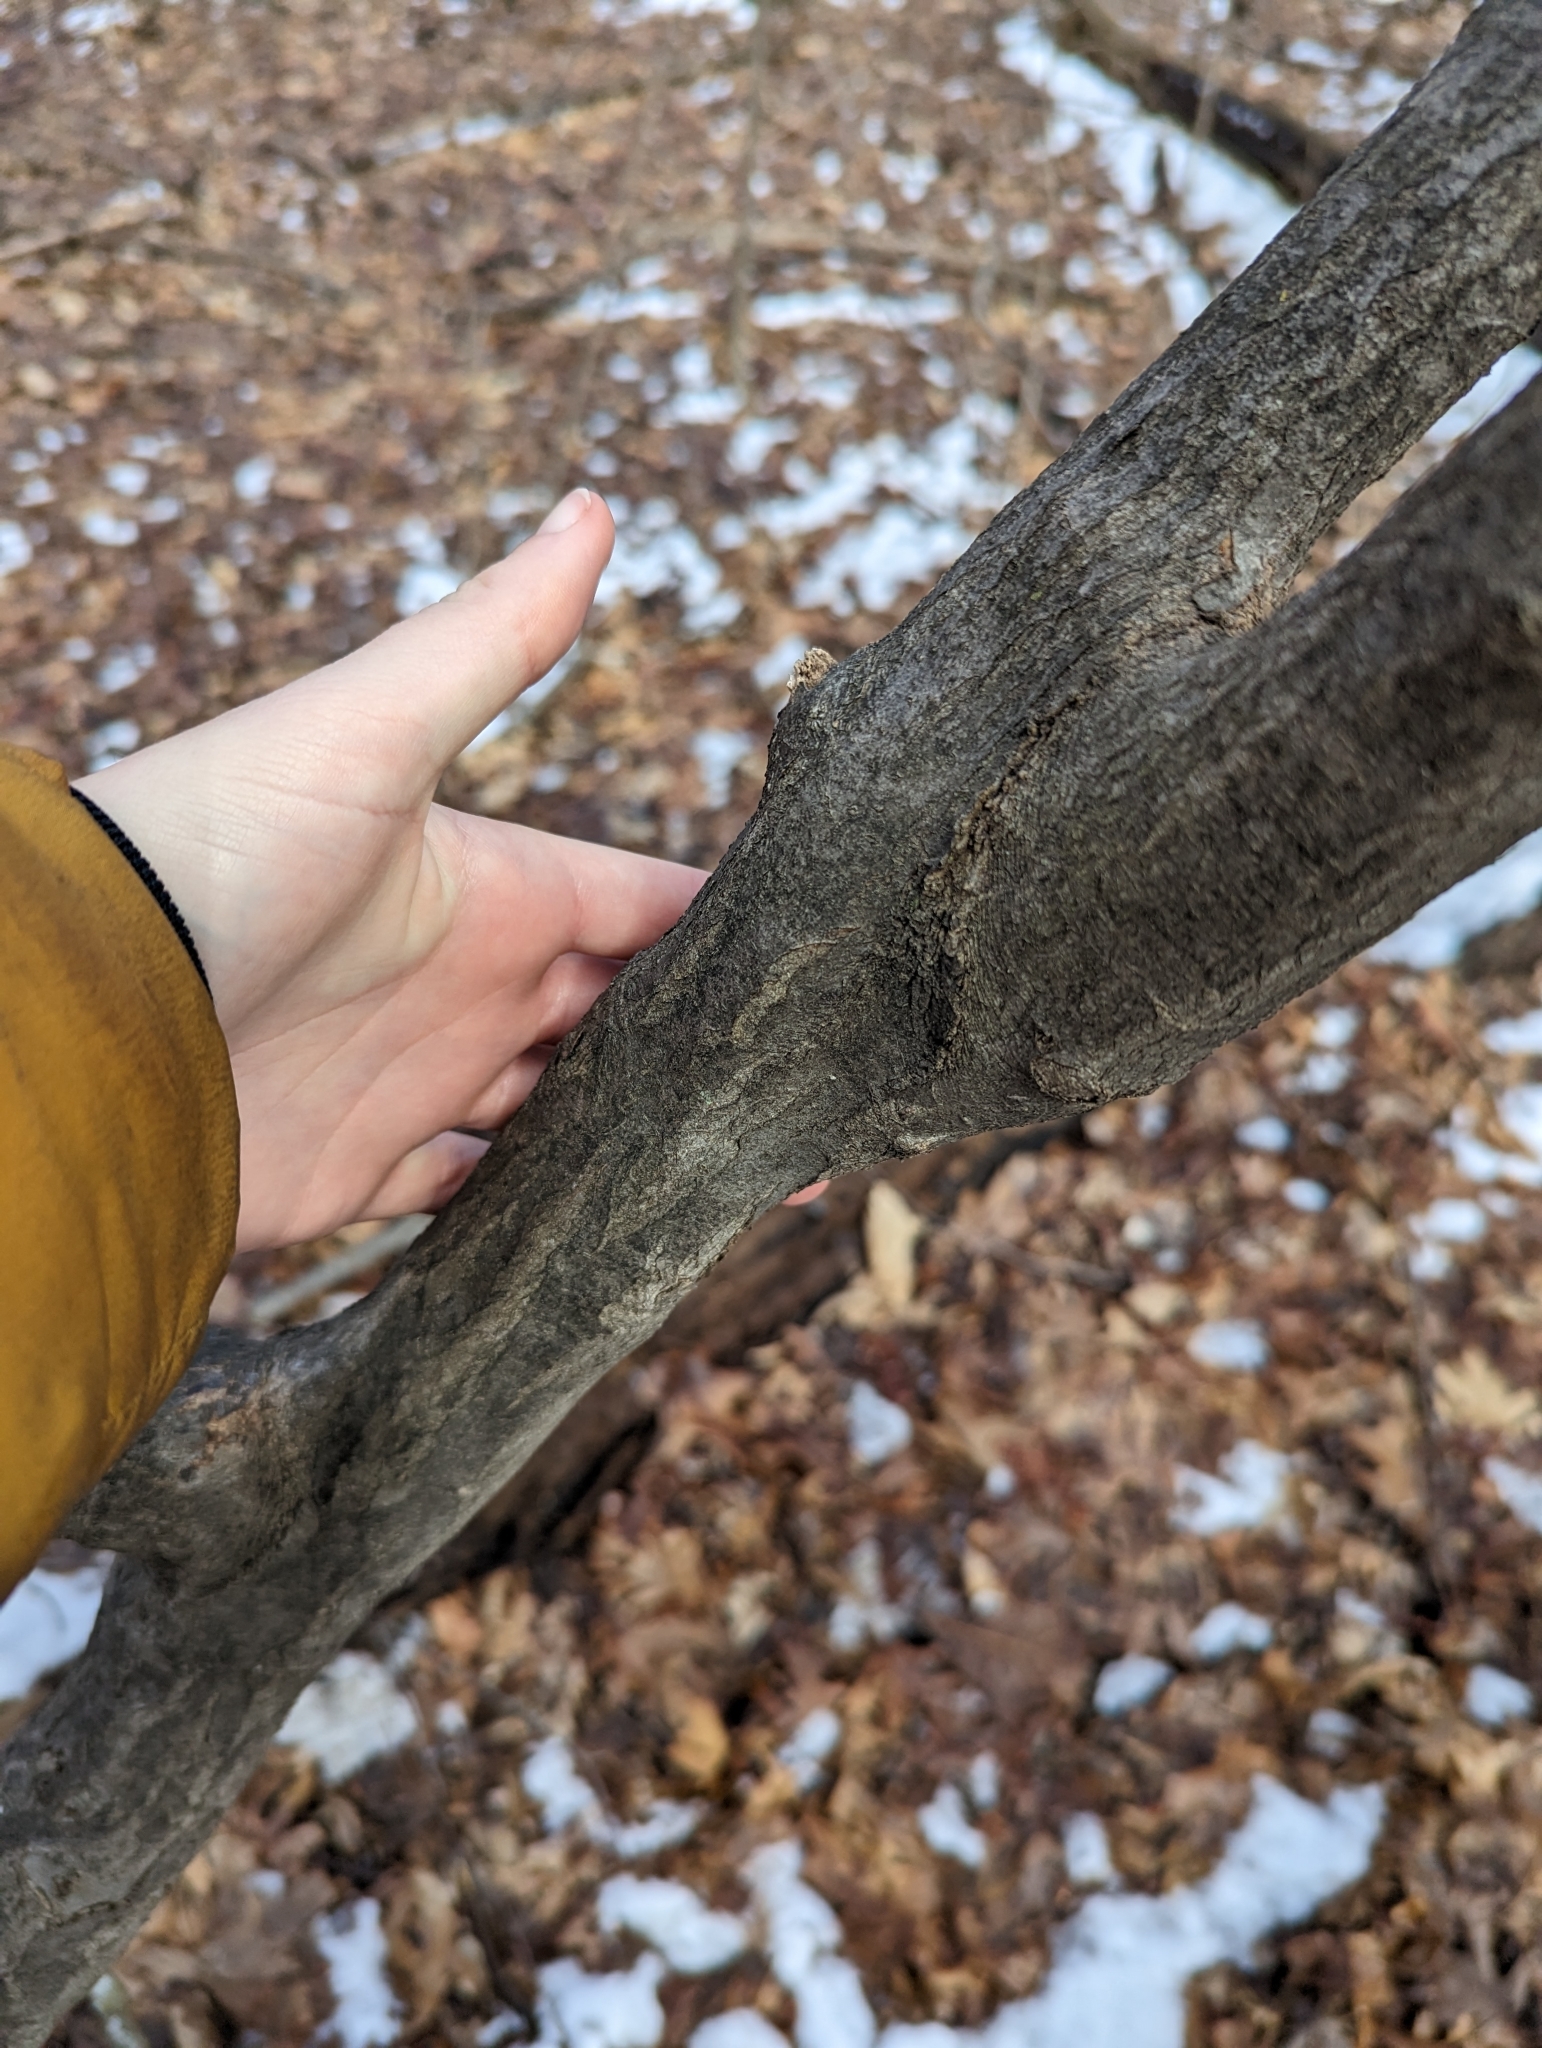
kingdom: Plantae
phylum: Tracheophyta
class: Magnoliopsida
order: Fagales
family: Betulaceae
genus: Carpinus
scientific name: Carpinus caroliniana
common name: American hornbeam
